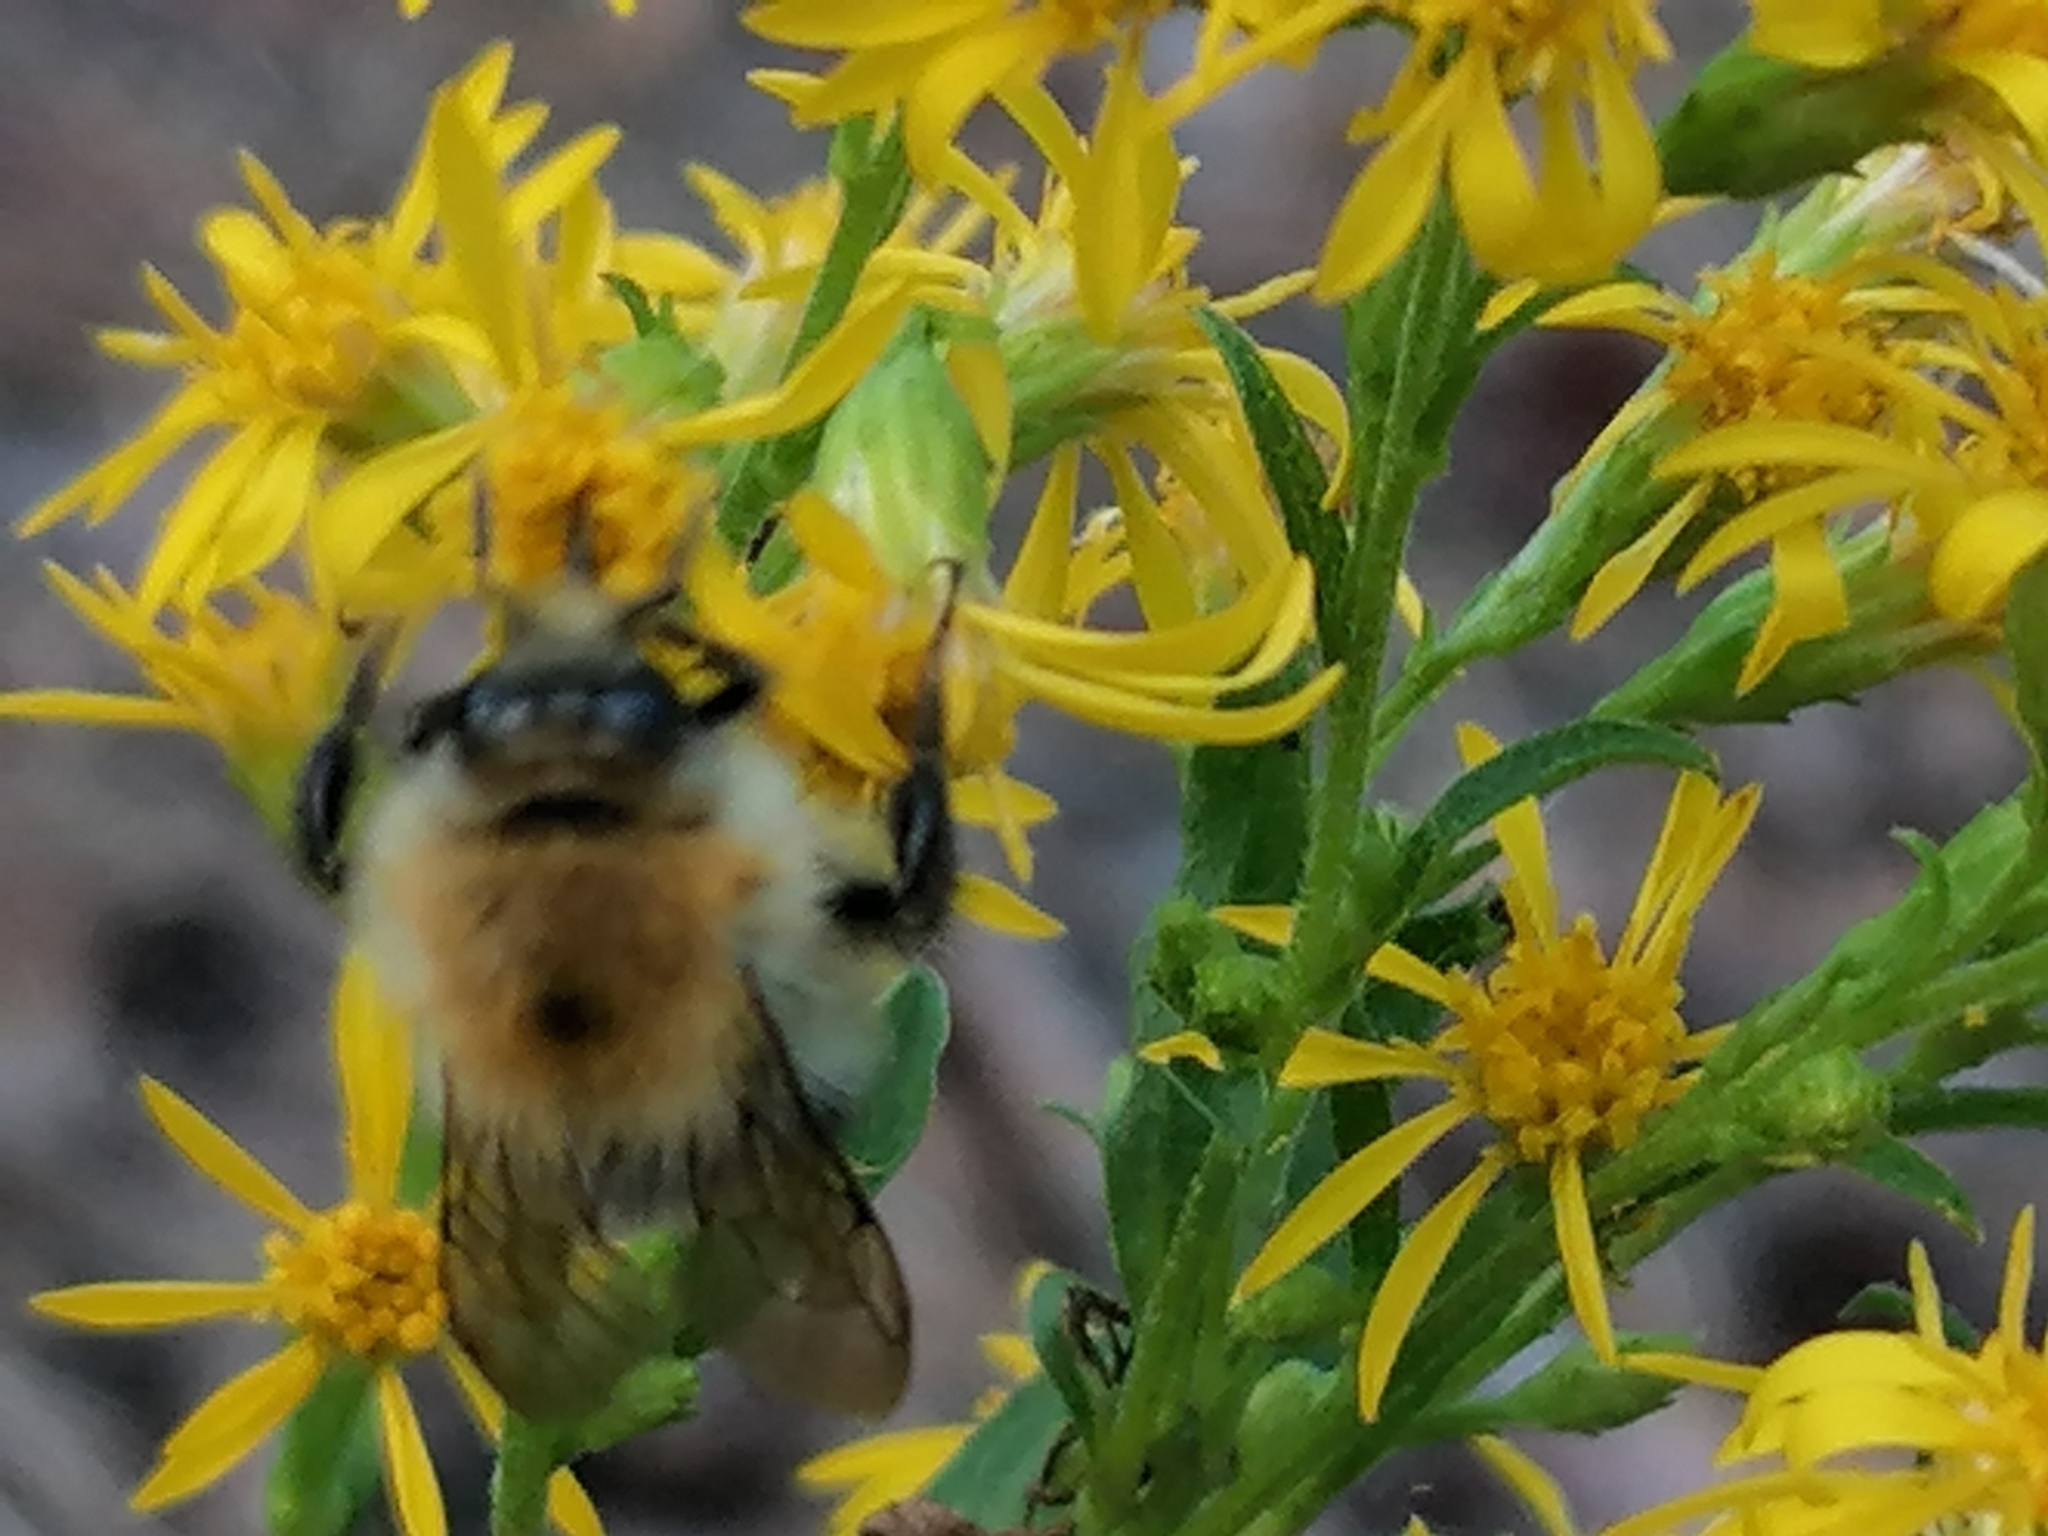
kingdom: Animalia
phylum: Arthropoda
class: Insecta
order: Hymenoptera
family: Apidae
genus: Bombus
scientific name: Bombus pascuorum
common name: Common carder bee
